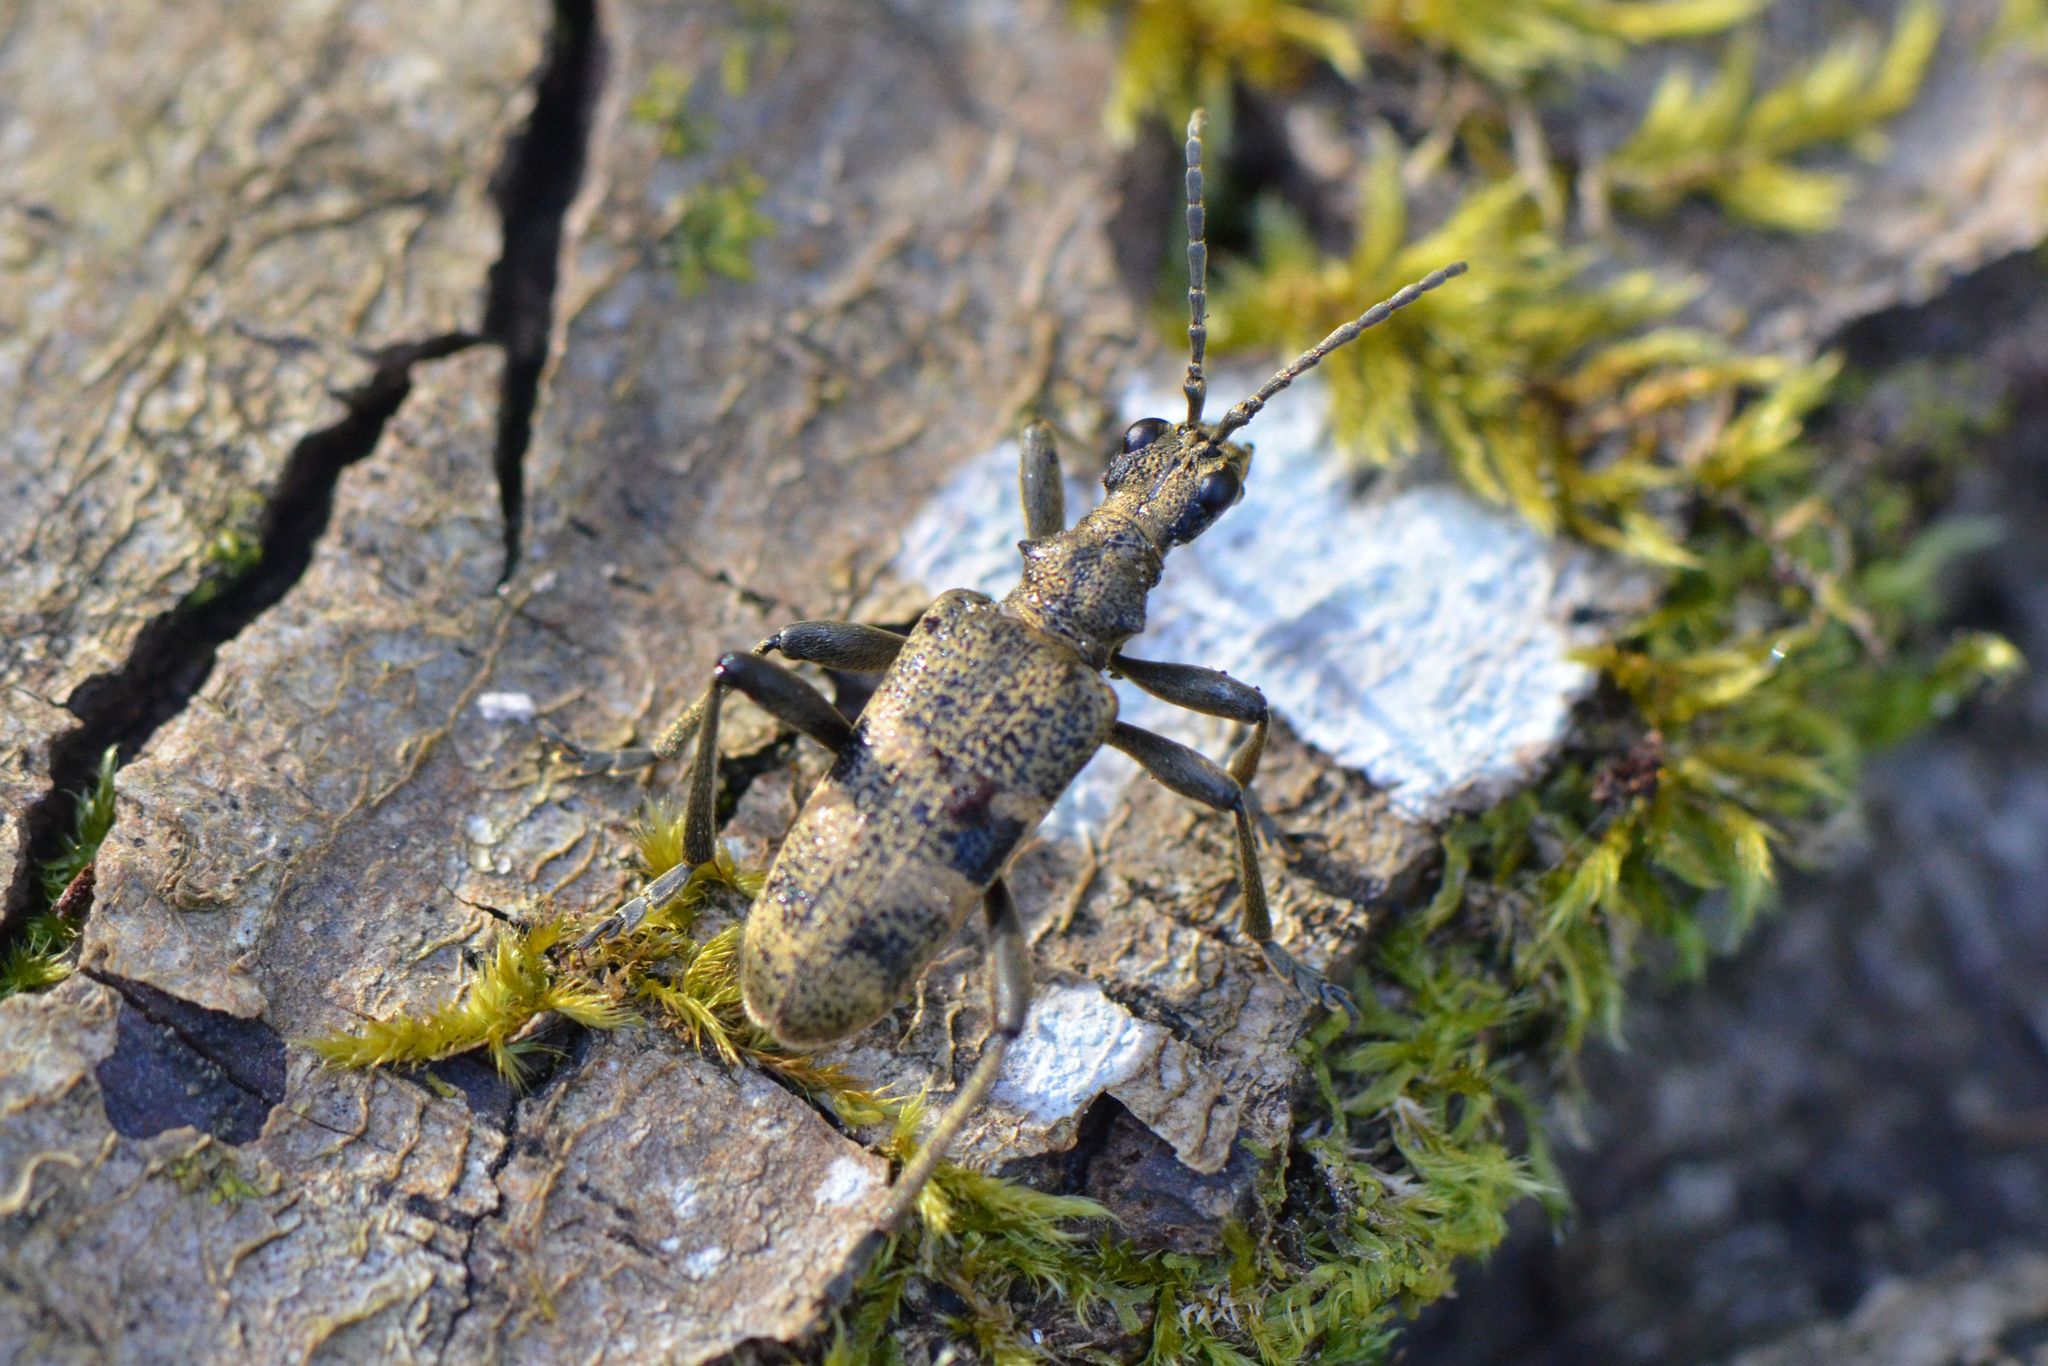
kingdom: Animalia
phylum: Arthropoda
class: Insecta
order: Coleoptera
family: Cerambycidae
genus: Rhagium
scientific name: Rhagium mordax
